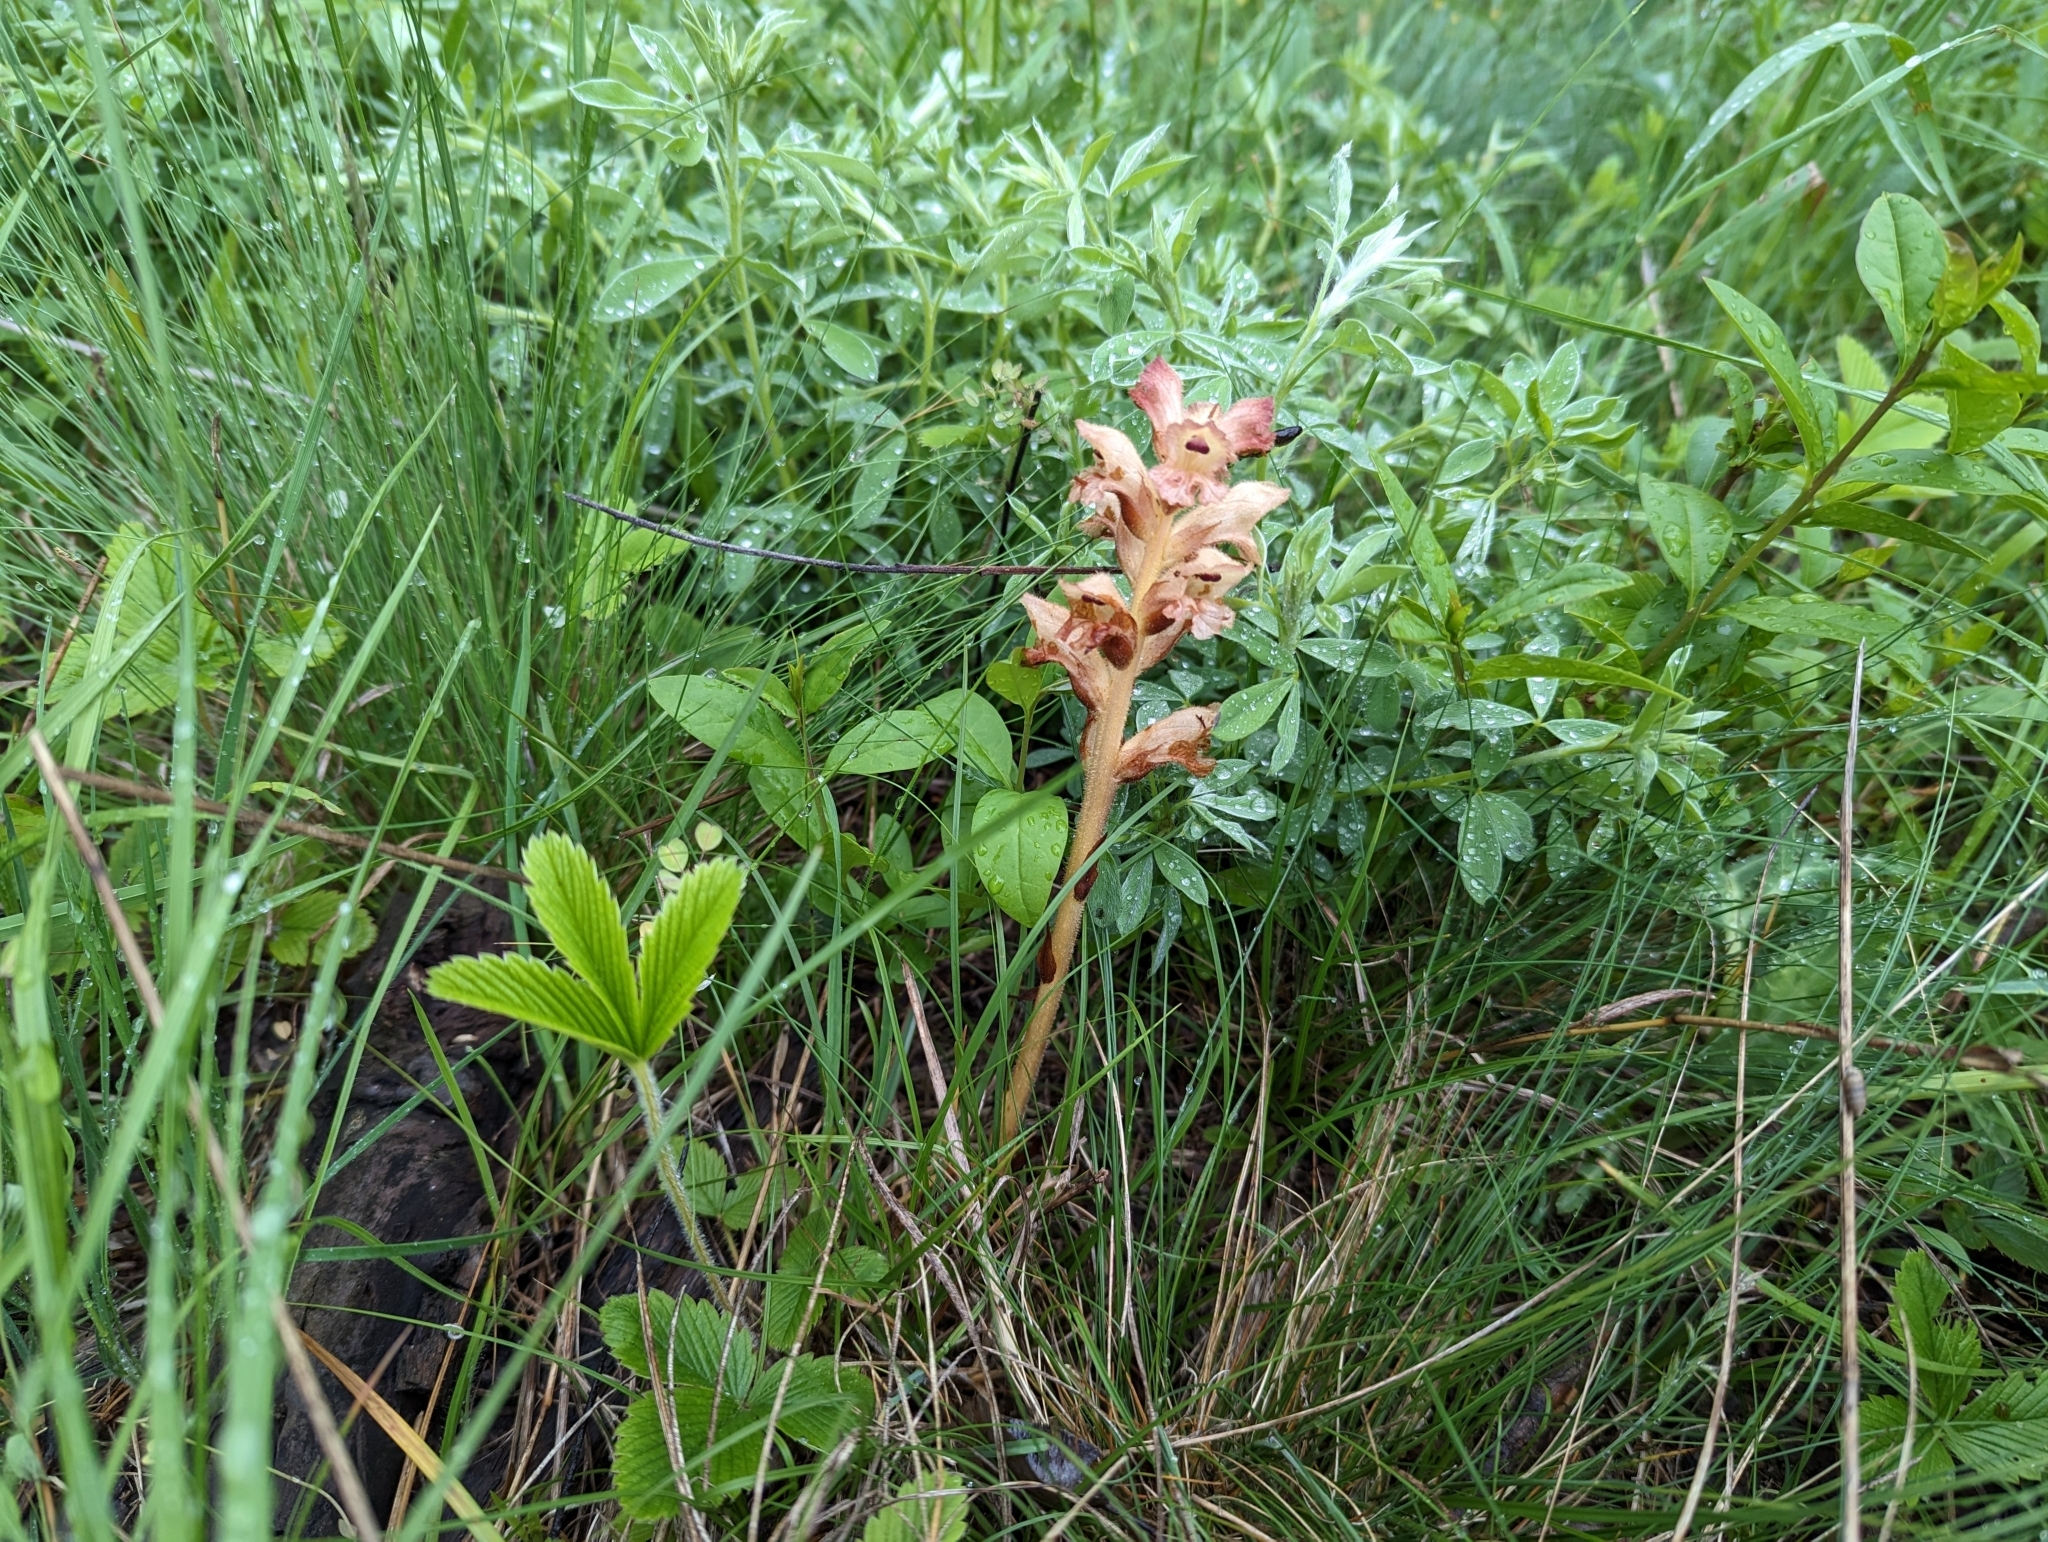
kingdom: Plantae
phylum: Tracheophyta
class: Magnoliopsida
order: Lamiales
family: Orobanchaceae
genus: Orobanche
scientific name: Orobanche caryophyllacea
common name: Bedstraw broomrape
